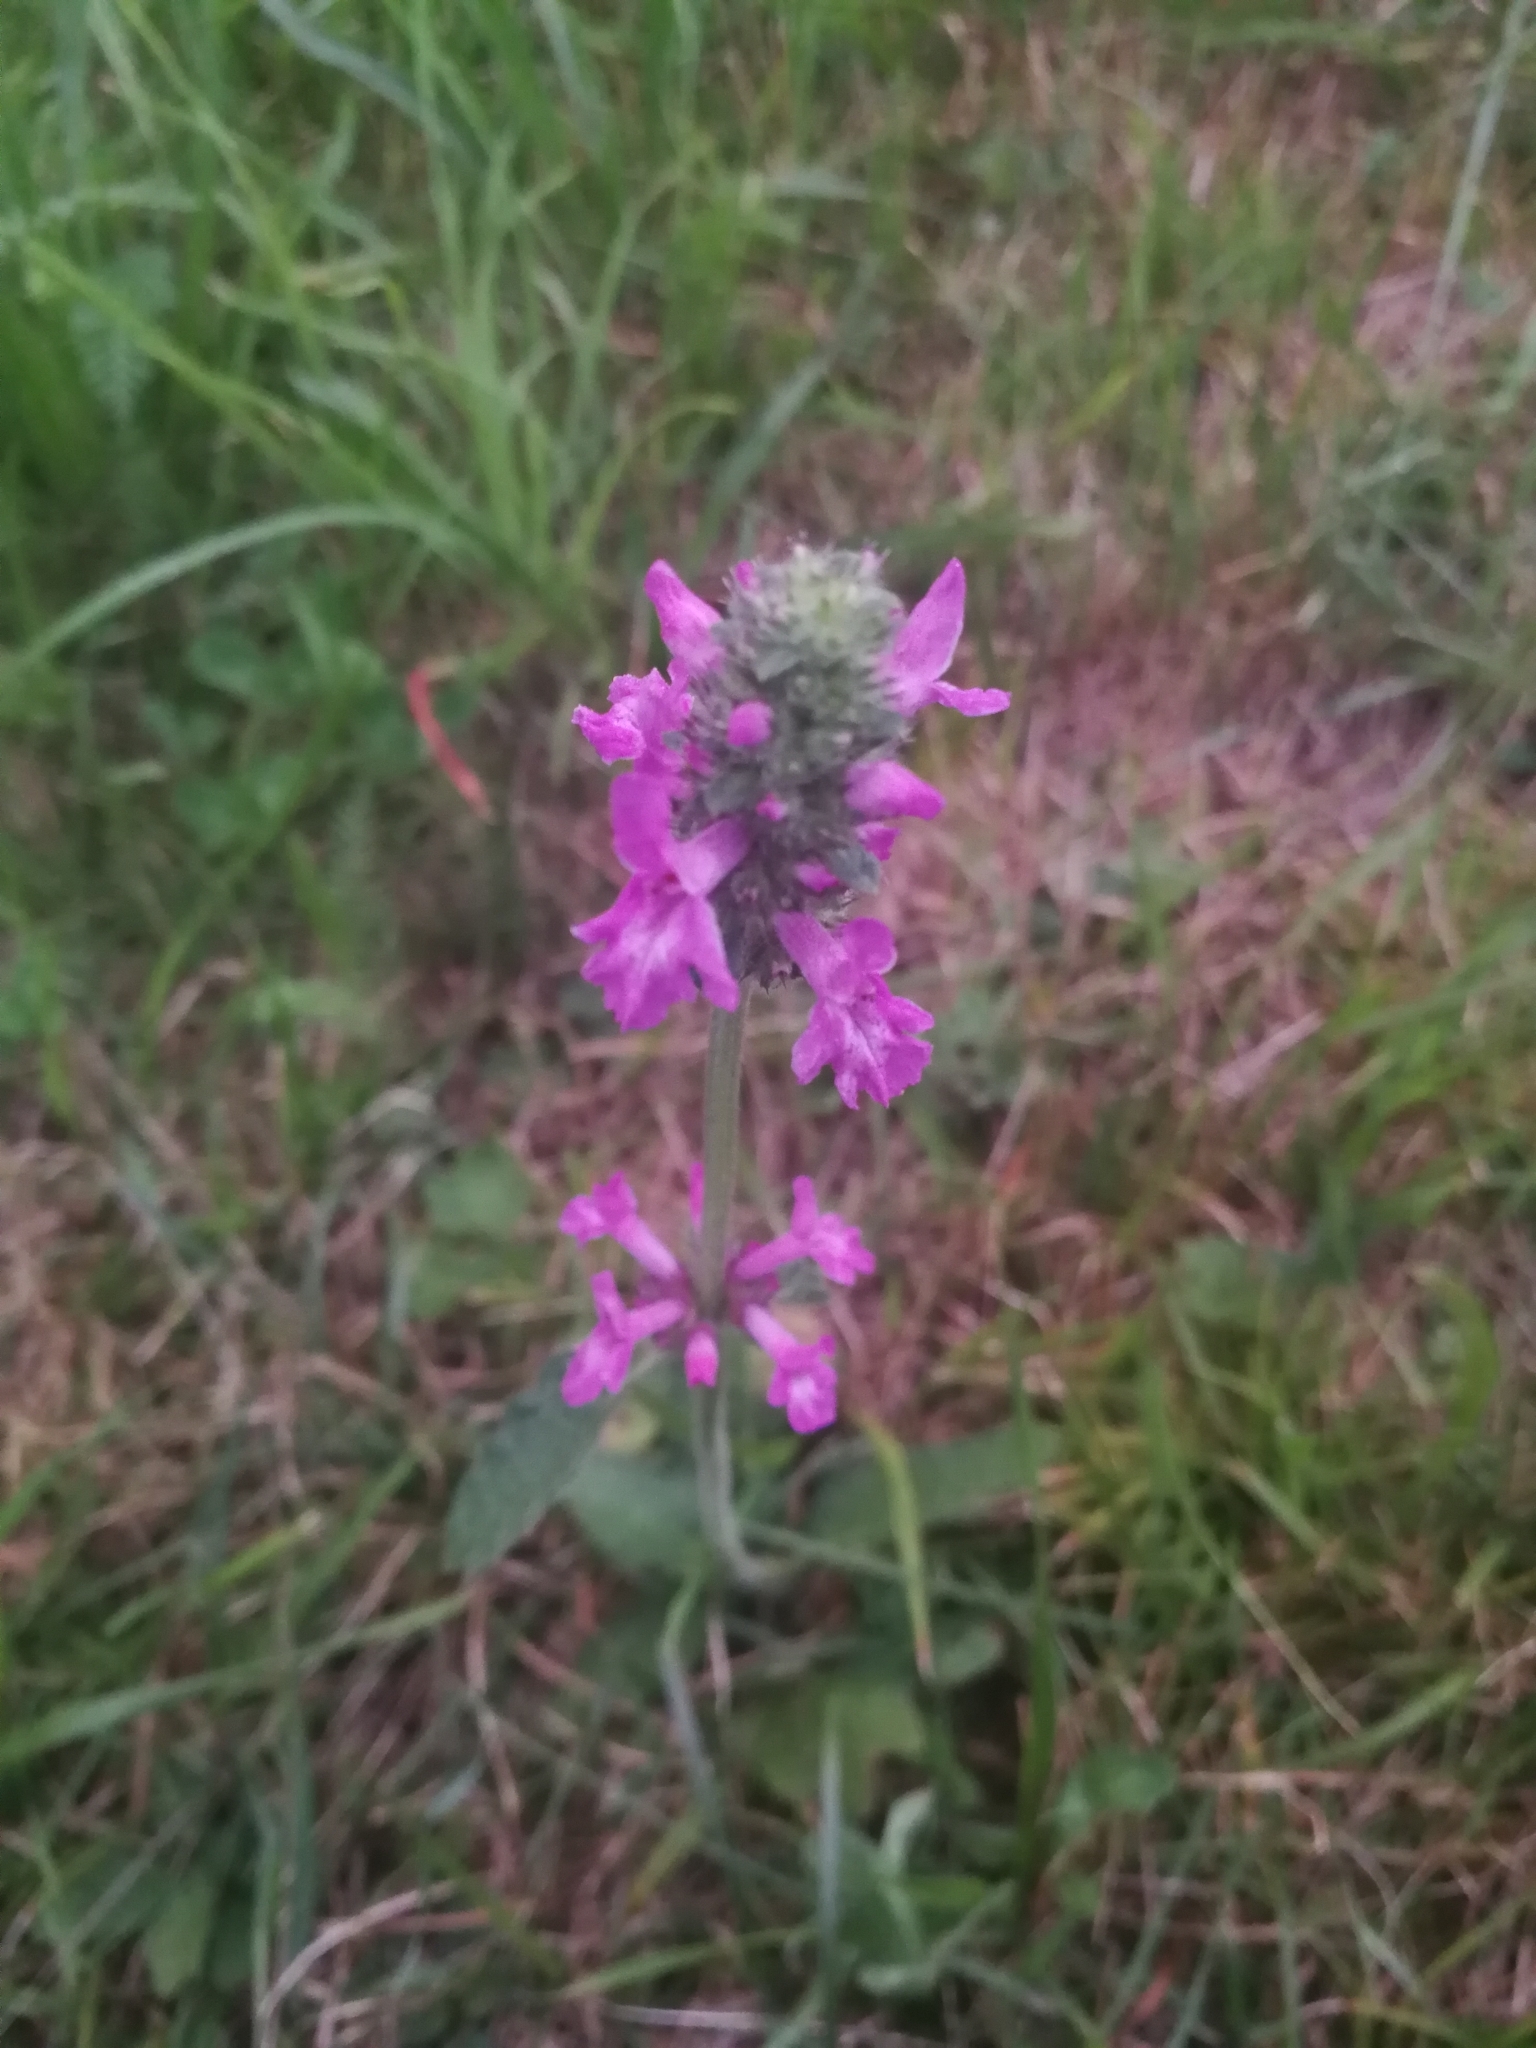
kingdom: Plantae
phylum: Tracheophyta
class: Magnoliopsida
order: Lamiales
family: Lamiaceae
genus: Betonica
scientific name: Betonica officinalis
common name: Bishop's-wort
